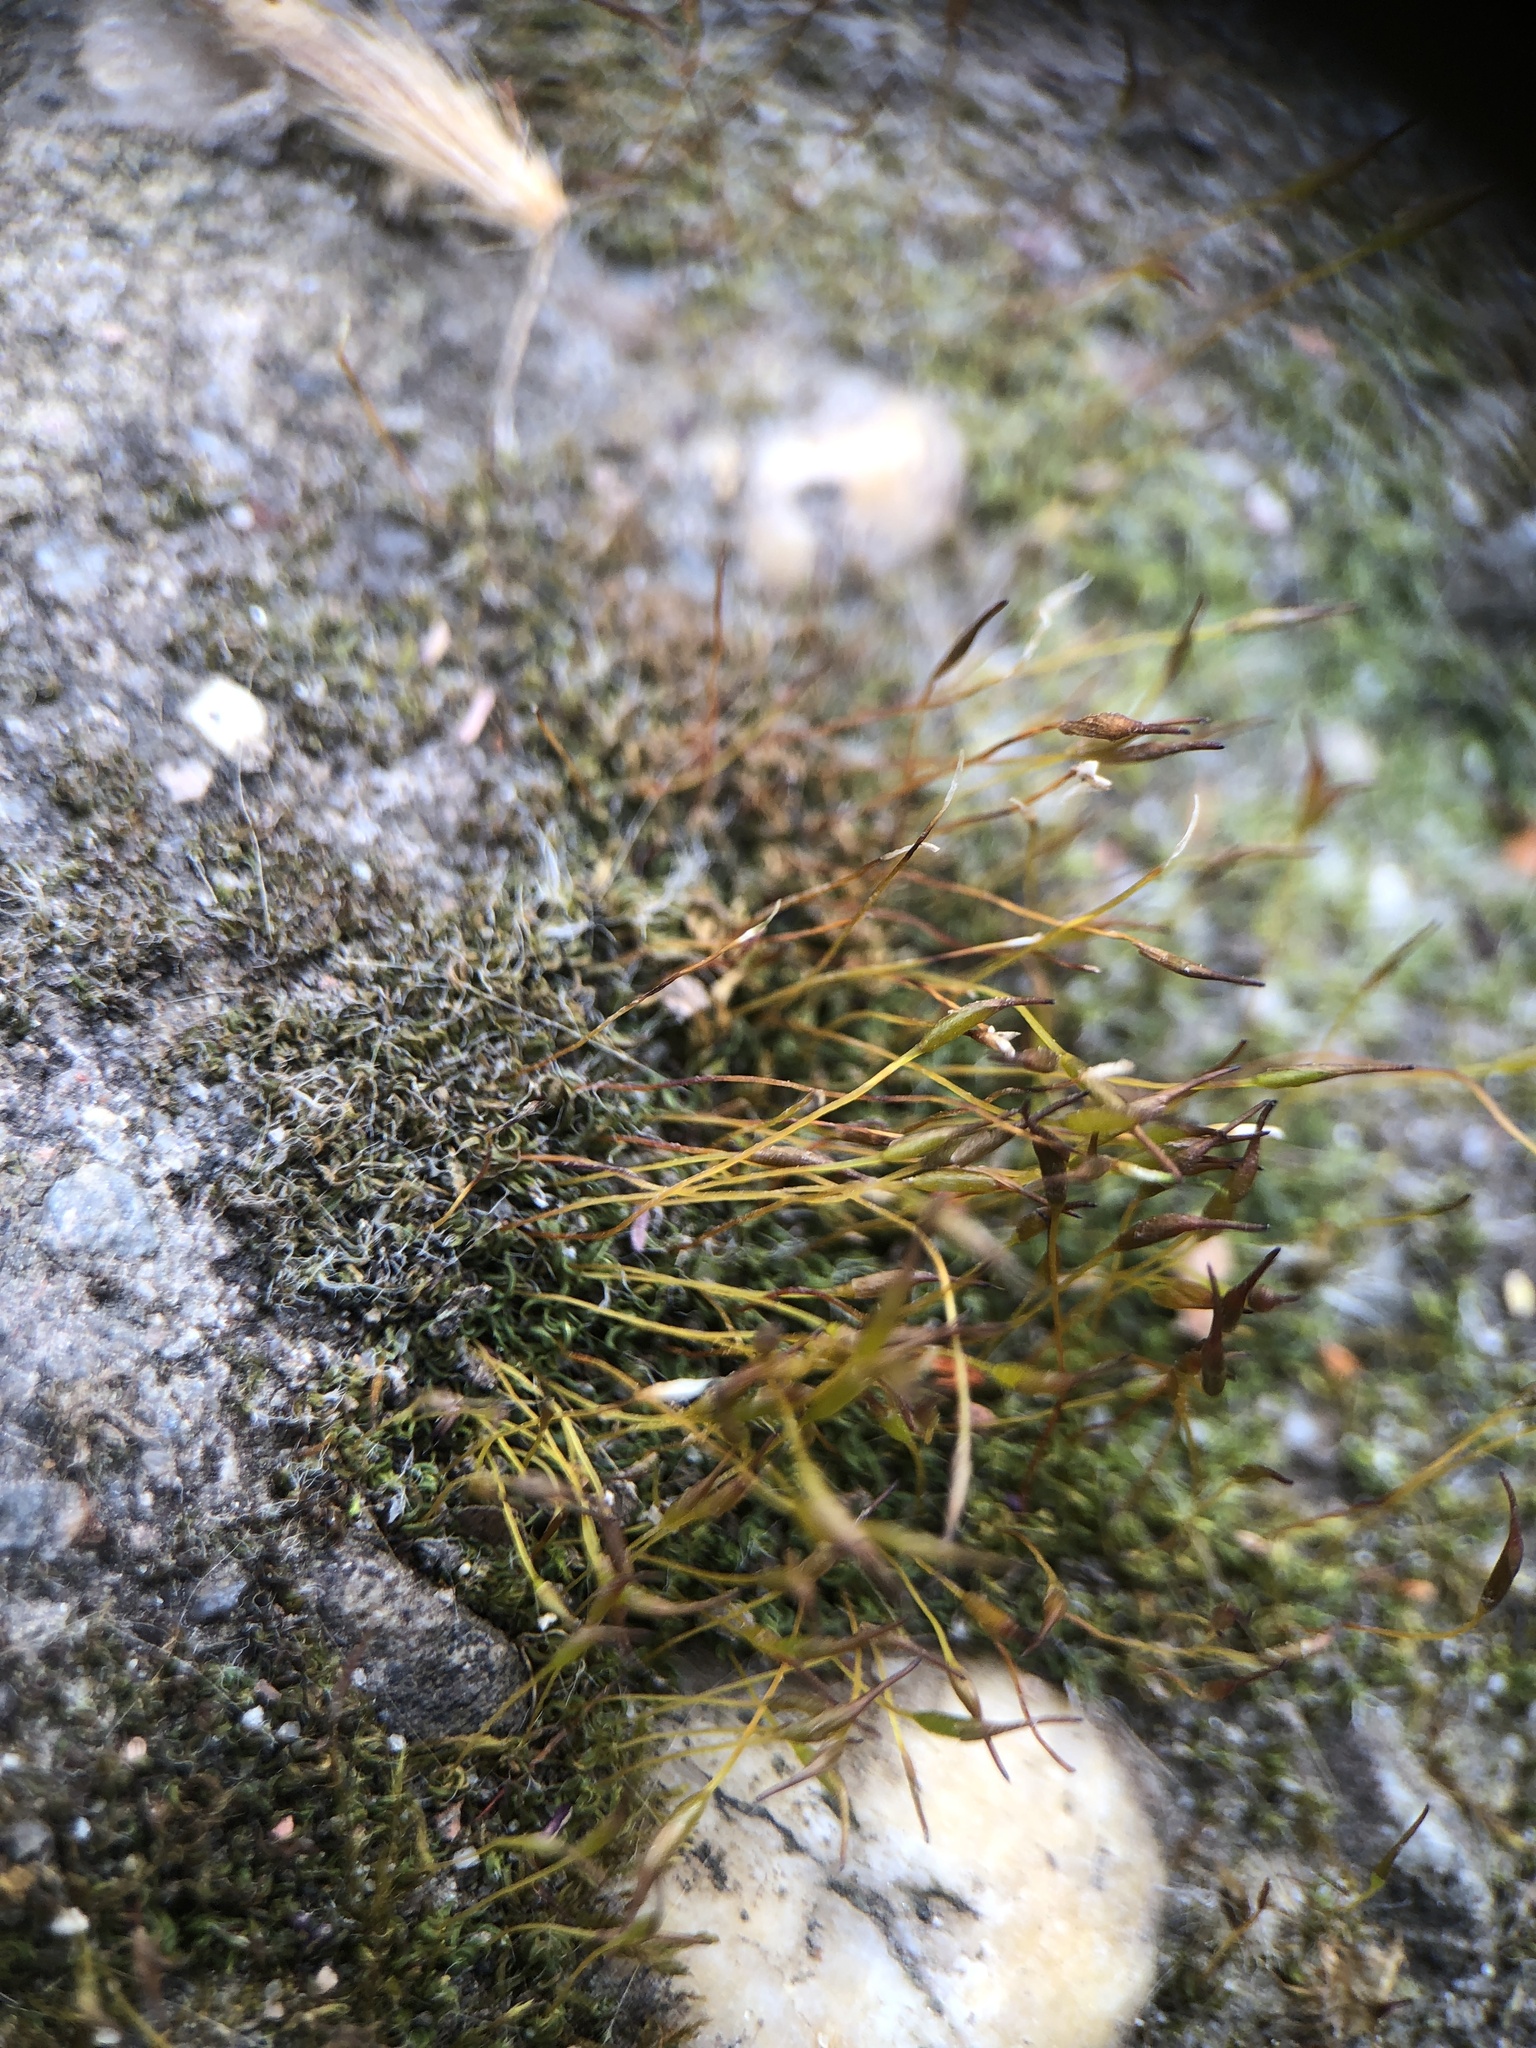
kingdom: Plantae
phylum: Bryophyta
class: Bryopsida
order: Pottiales
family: Pottiaceae
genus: Tortula
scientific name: Tortula muralis
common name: Wall screw-moss
